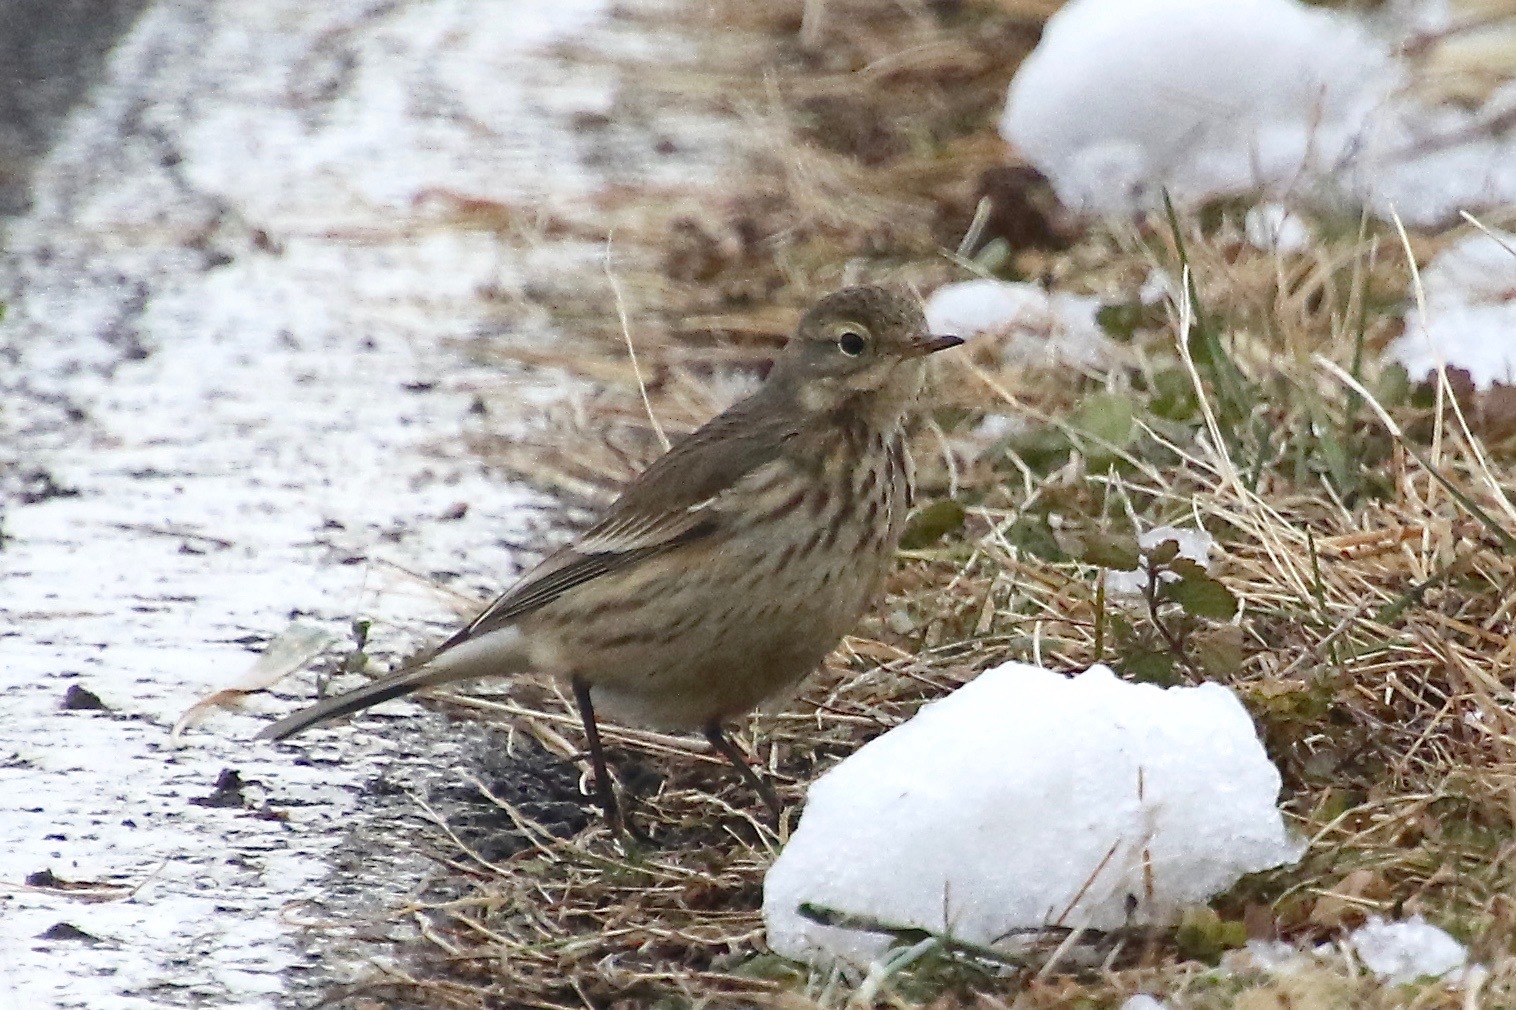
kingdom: Animalia
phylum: Chordata
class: Aves
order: Passeriformes
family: Motacillidae
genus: Anthus
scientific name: Anthus rubescens
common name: Buff-bellied pipit
